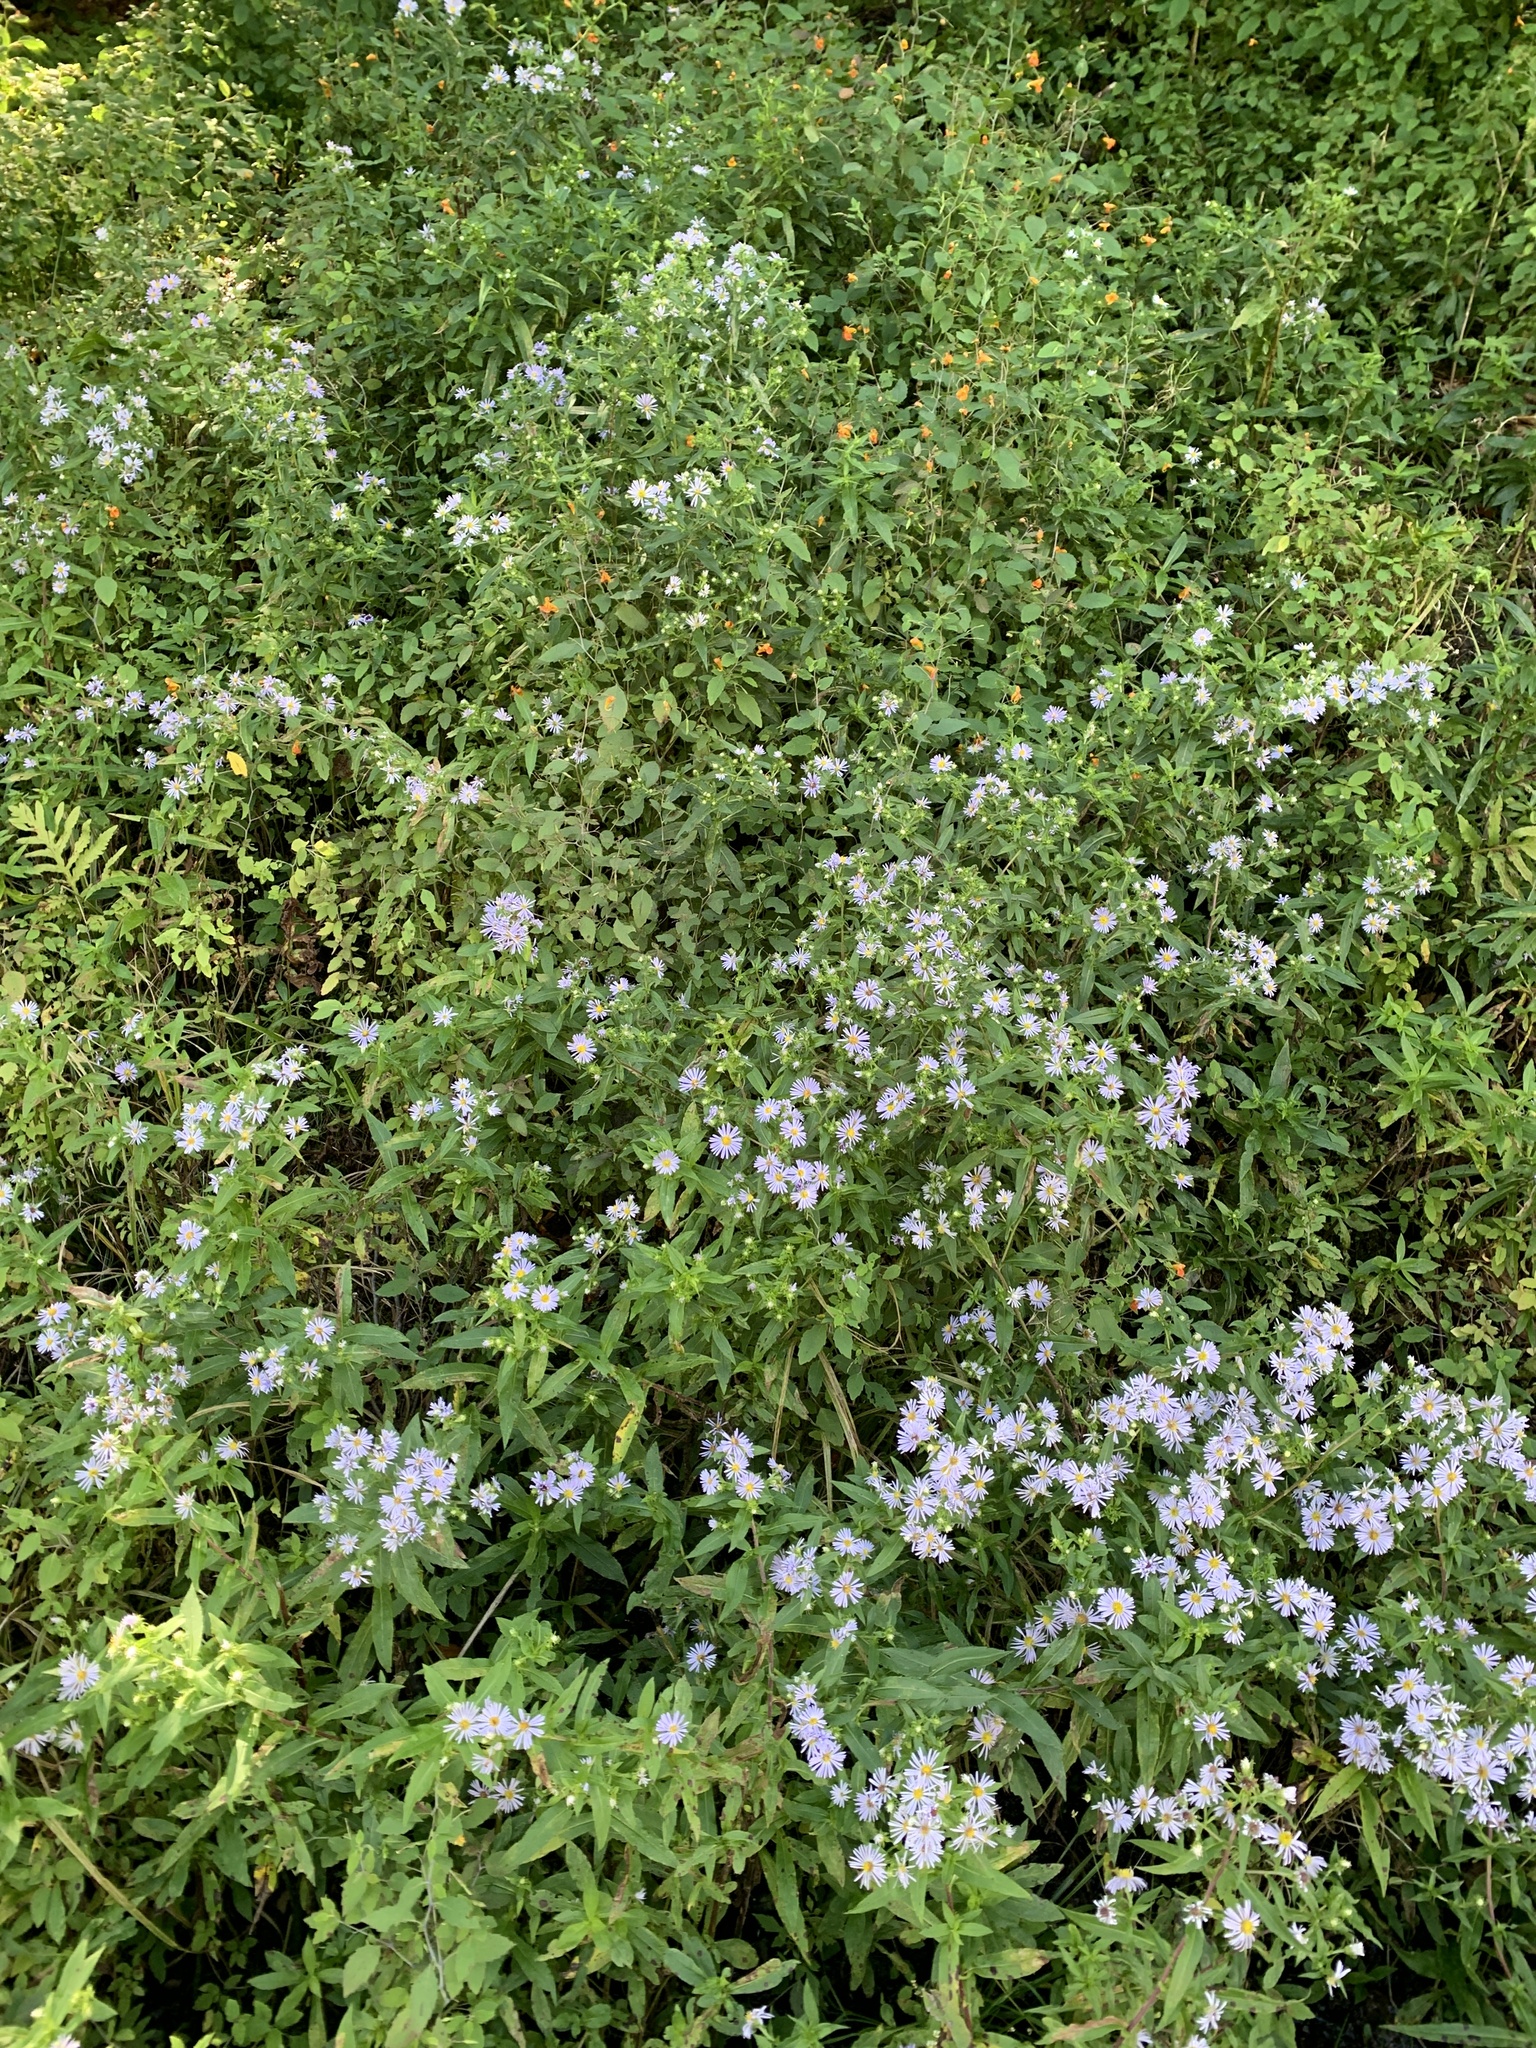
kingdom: Plantae
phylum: Tracheophyta
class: Magnoliopsida
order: Asterales
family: Asteraceae
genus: Symphyotrichum
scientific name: Symphyotrichum puniceum
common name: Bog aster
